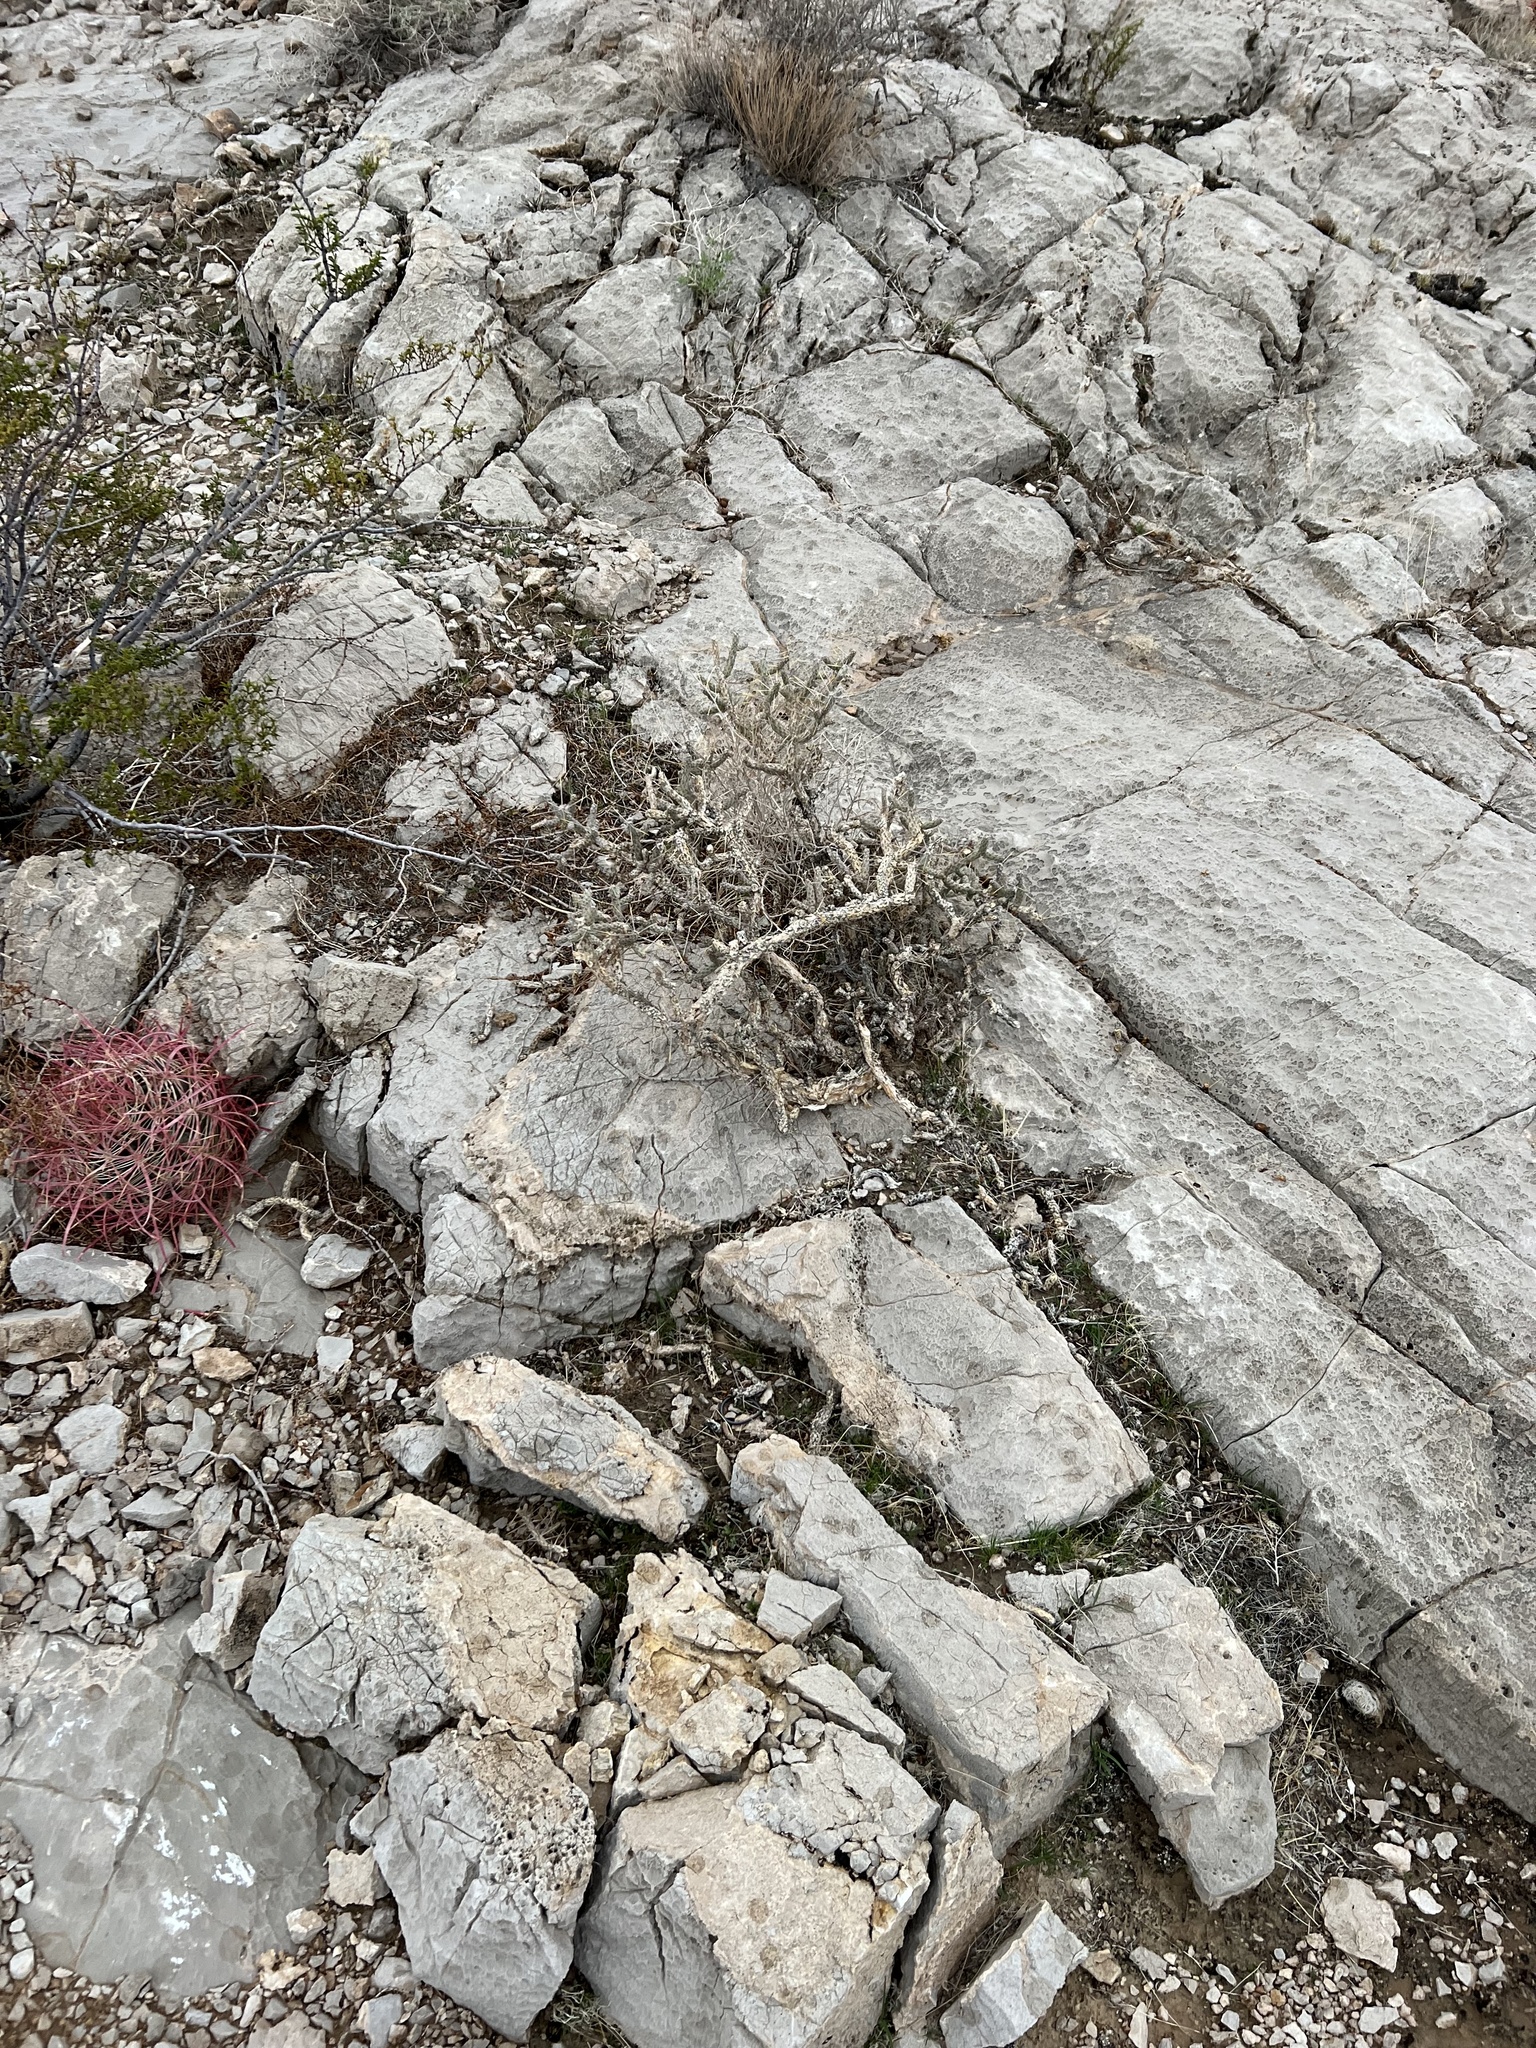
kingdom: Plantae
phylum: Tracheophyta
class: Magnoliopsida
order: Caryophyllales
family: Cactaceae
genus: Cylindropuntia
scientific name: Cylindropuntia ramosissima
